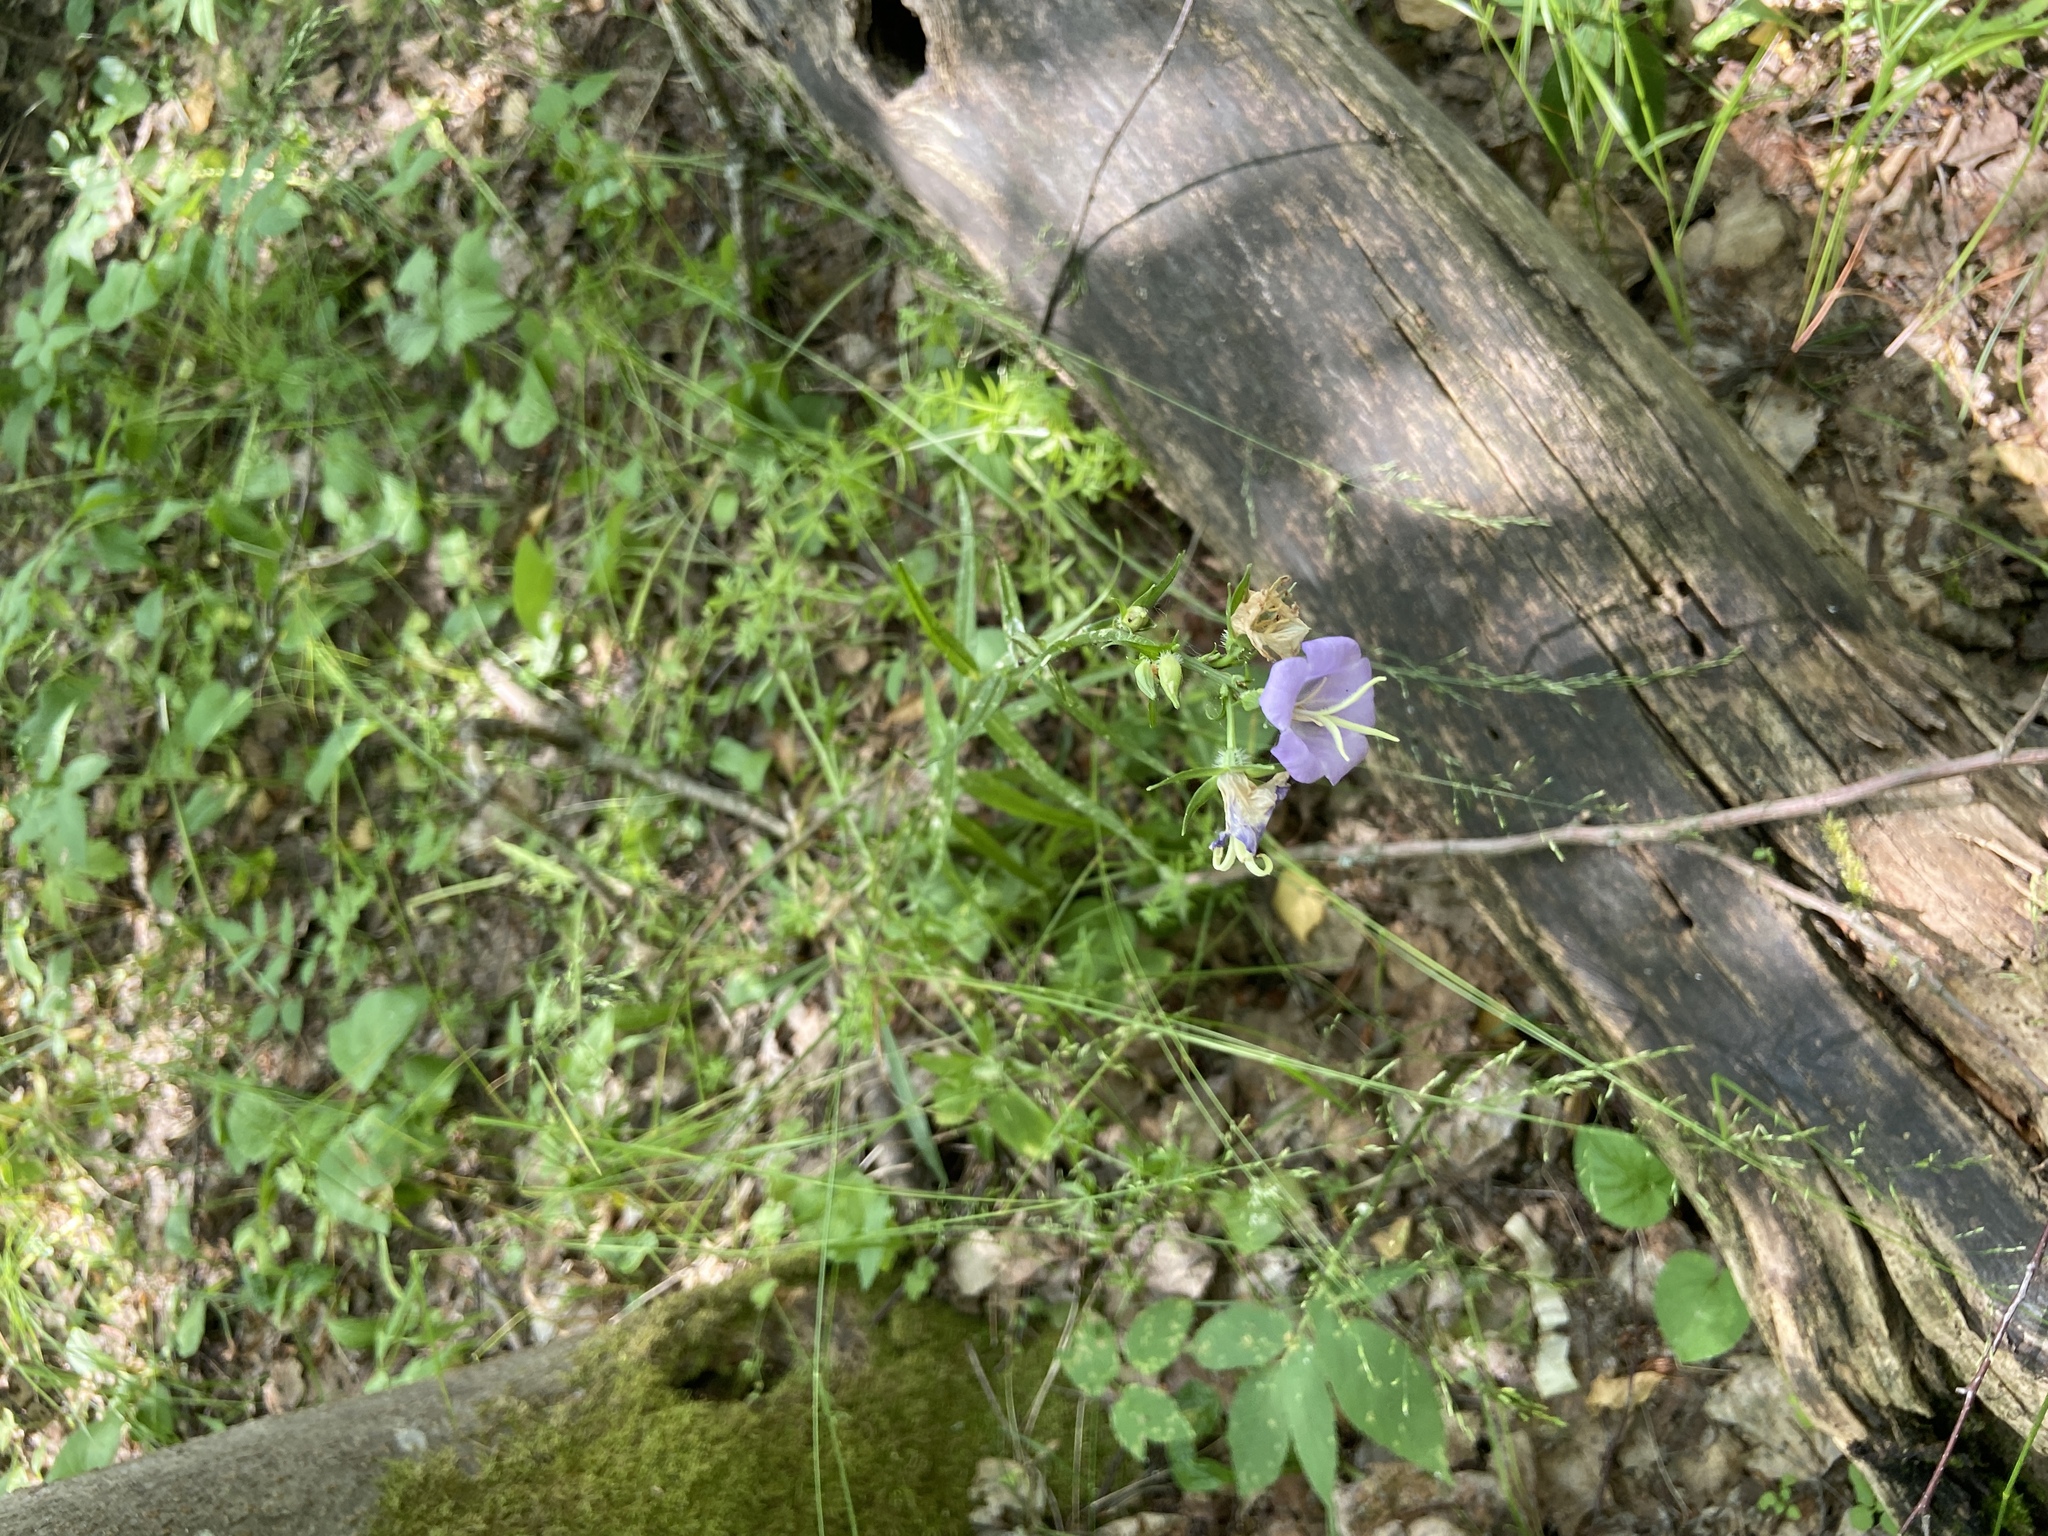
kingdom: Plantae
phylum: Tracheophyta
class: Magnoliopsida
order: Asterales
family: Campanulaceae
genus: Campanula
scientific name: Campanula persicifolia
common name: Peach-leaved bellflower
